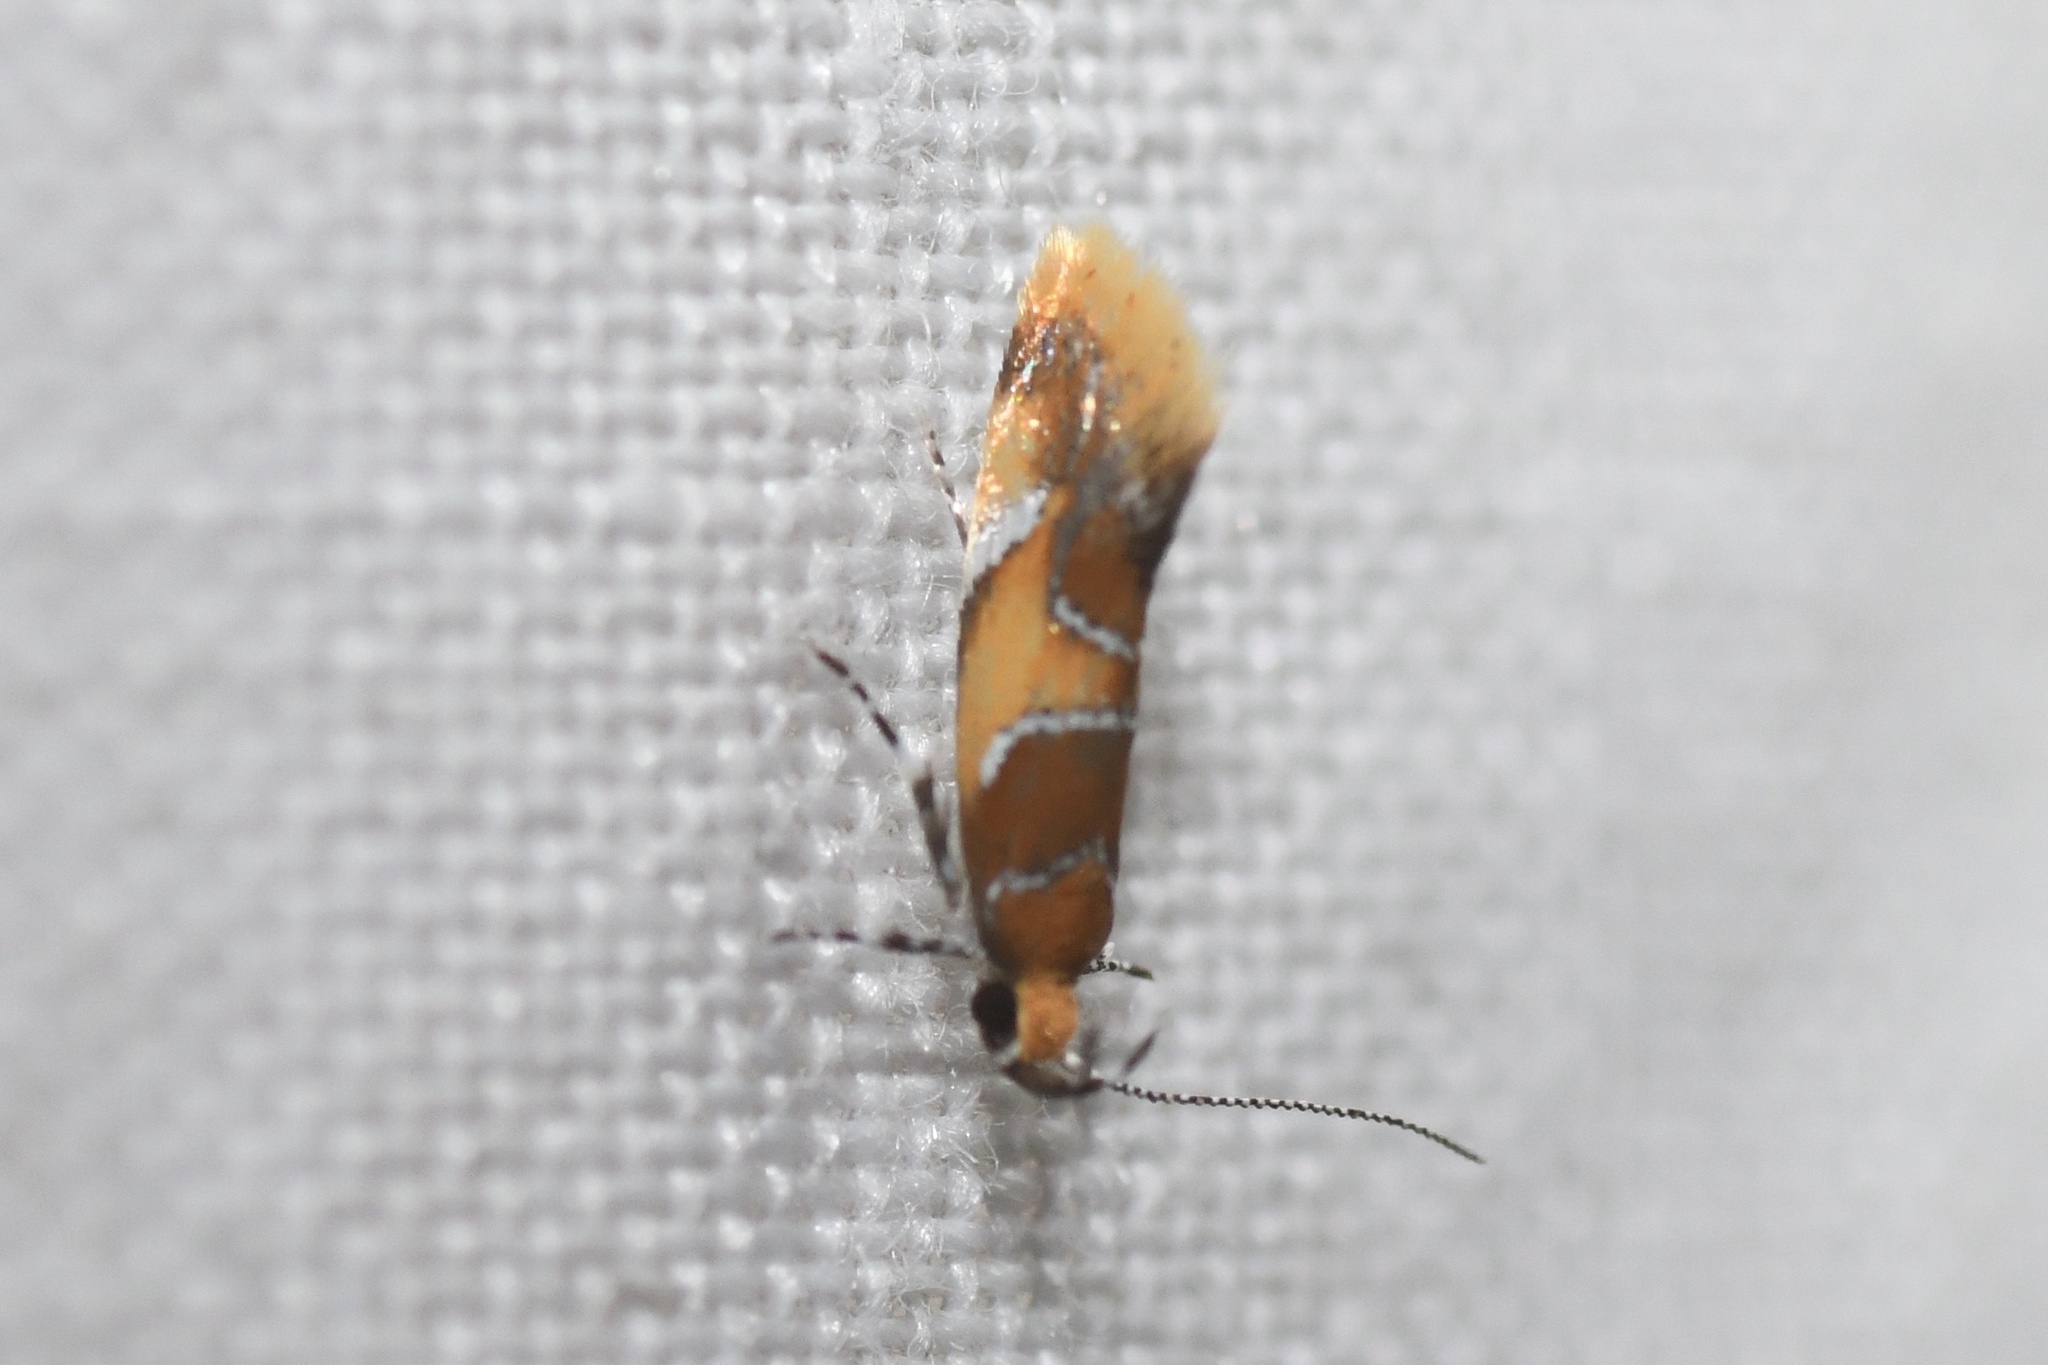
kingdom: Animalia
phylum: Arthropoda
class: Insecta
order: Lepidoptera
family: Oecophoridae
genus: Callima
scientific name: Callima argenticinctella
